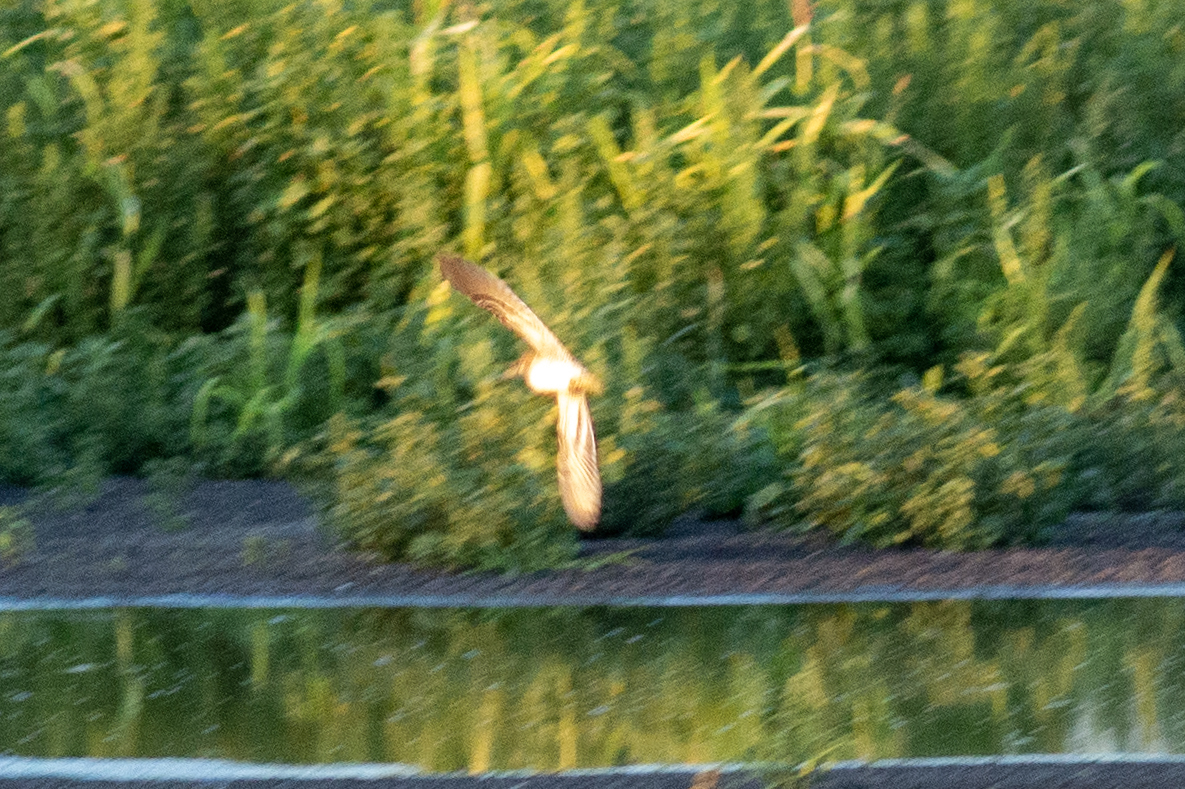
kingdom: Animalia
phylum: Chordata
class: Aves
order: Charadriiformes
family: Scolopacidae
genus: Gallinago
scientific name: Gallinago gallinago
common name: Common snipe
